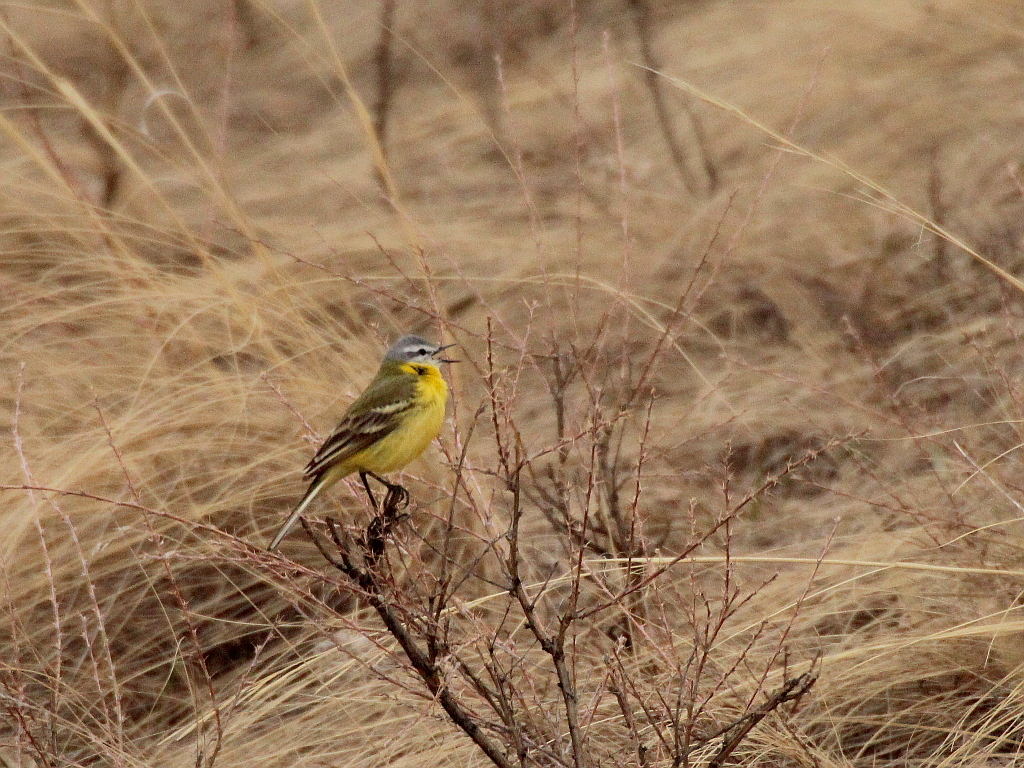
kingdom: Animalia
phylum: Chordata
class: Aves
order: Passeriformes
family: Motacillidae
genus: Motacilla
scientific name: Motacilla flava
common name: Western yellow wagtail
